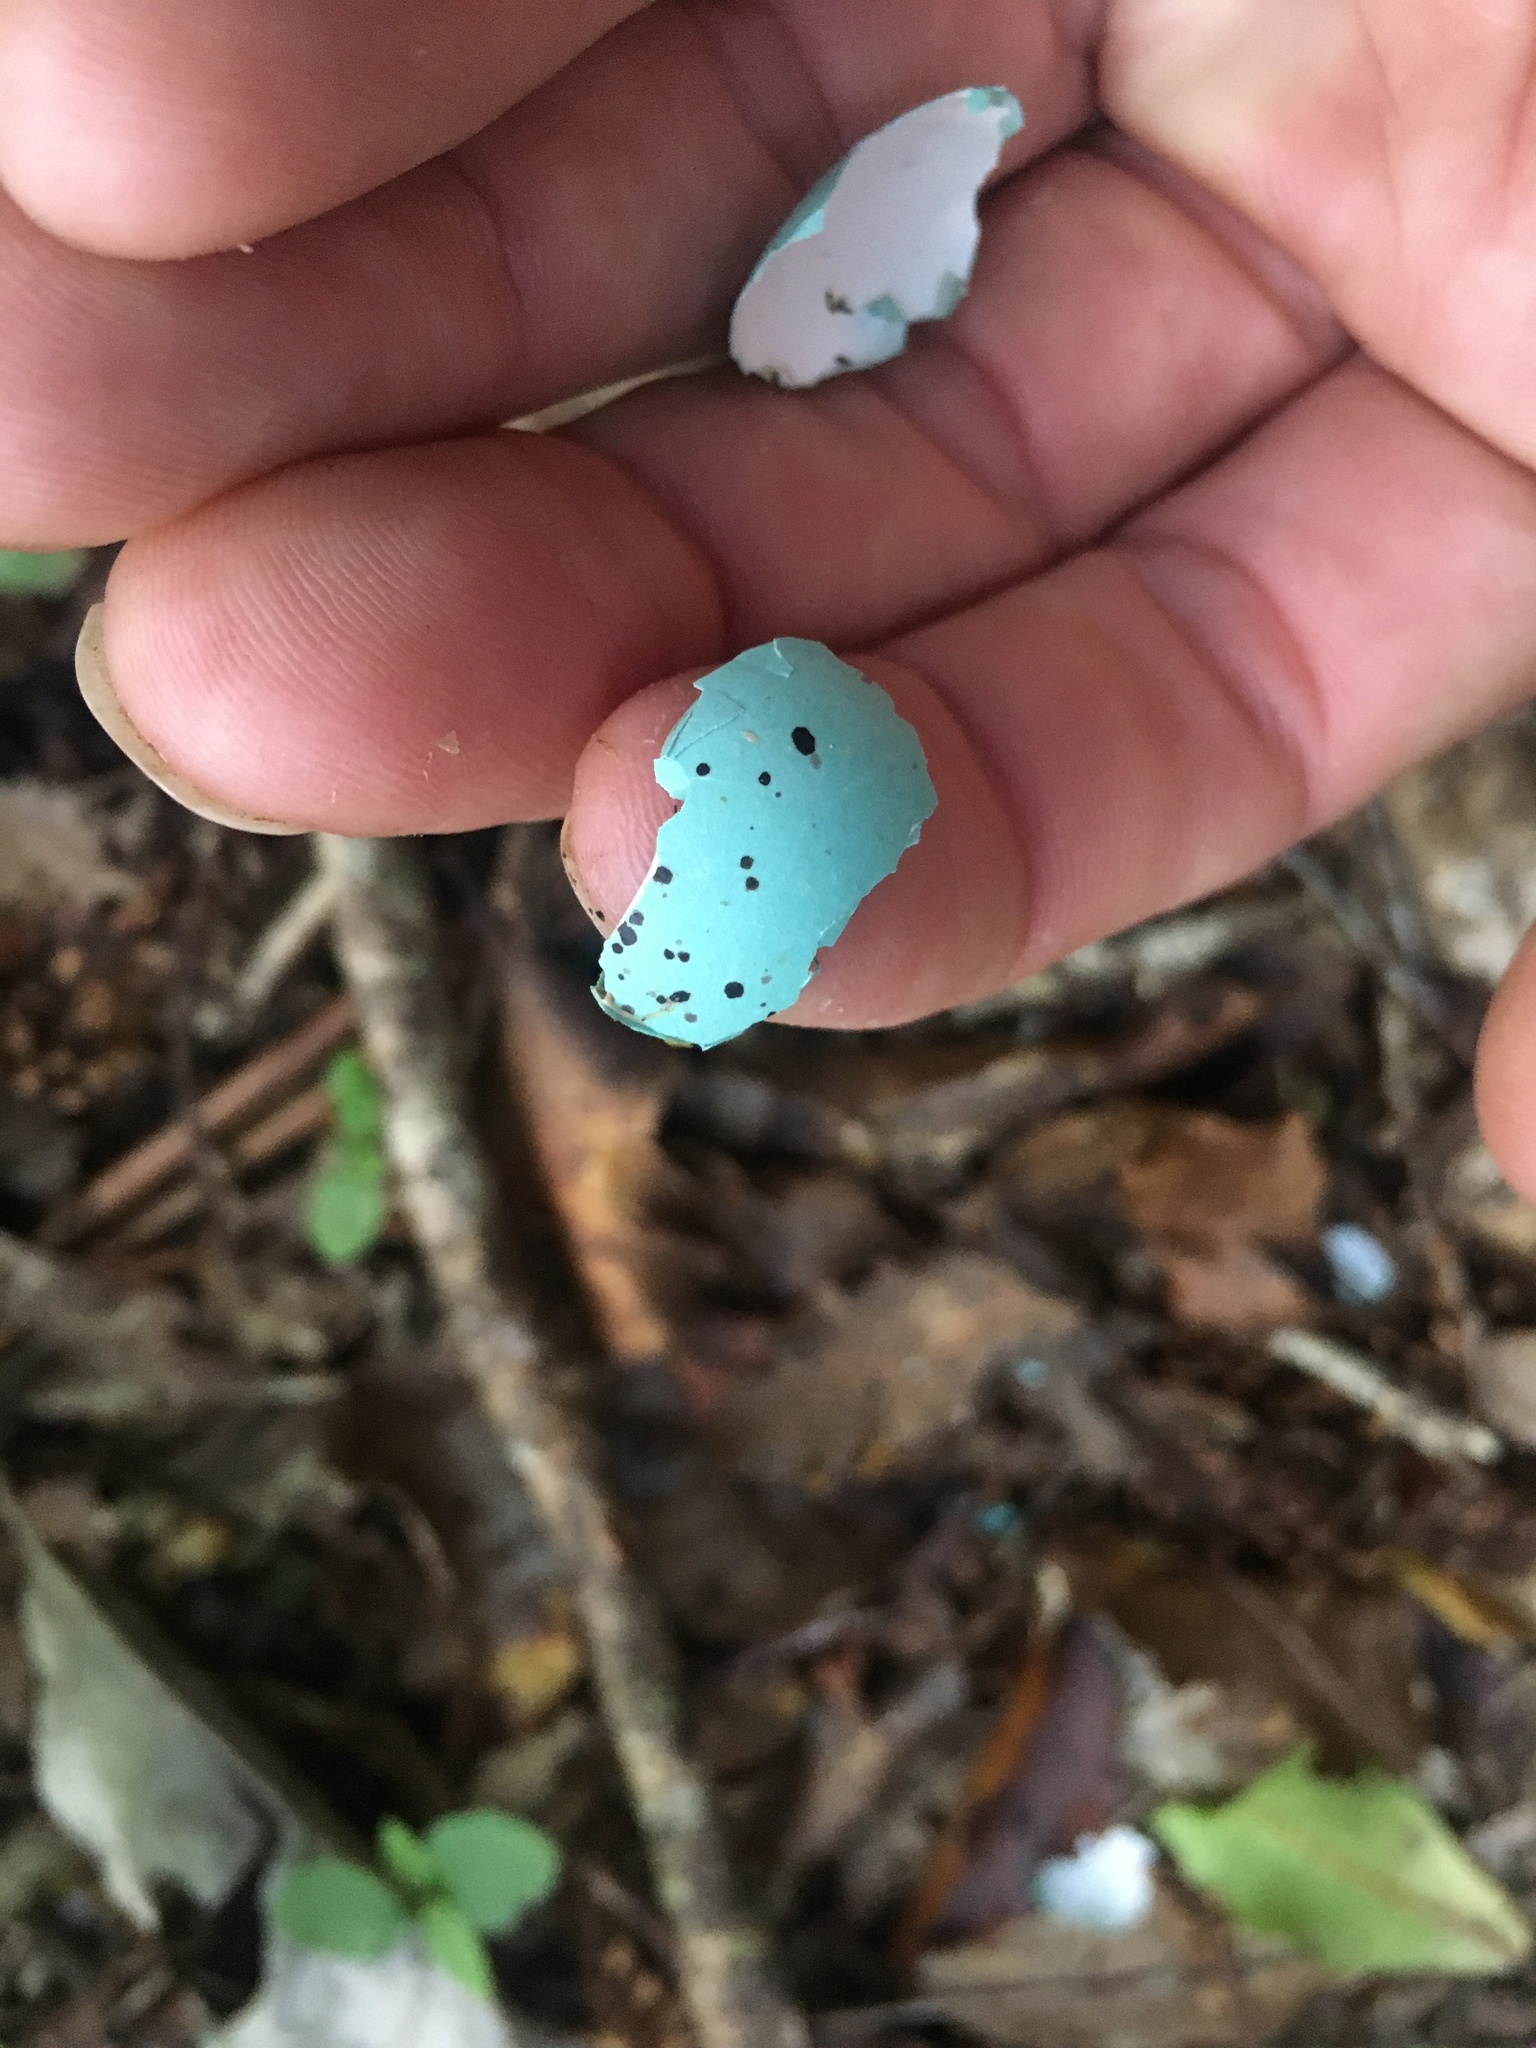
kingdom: Animalia
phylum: Chordata
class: Aves
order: Passeriformes
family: Turdidae
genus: Turdus
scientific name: Turdus philomelos
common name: Song thrush
